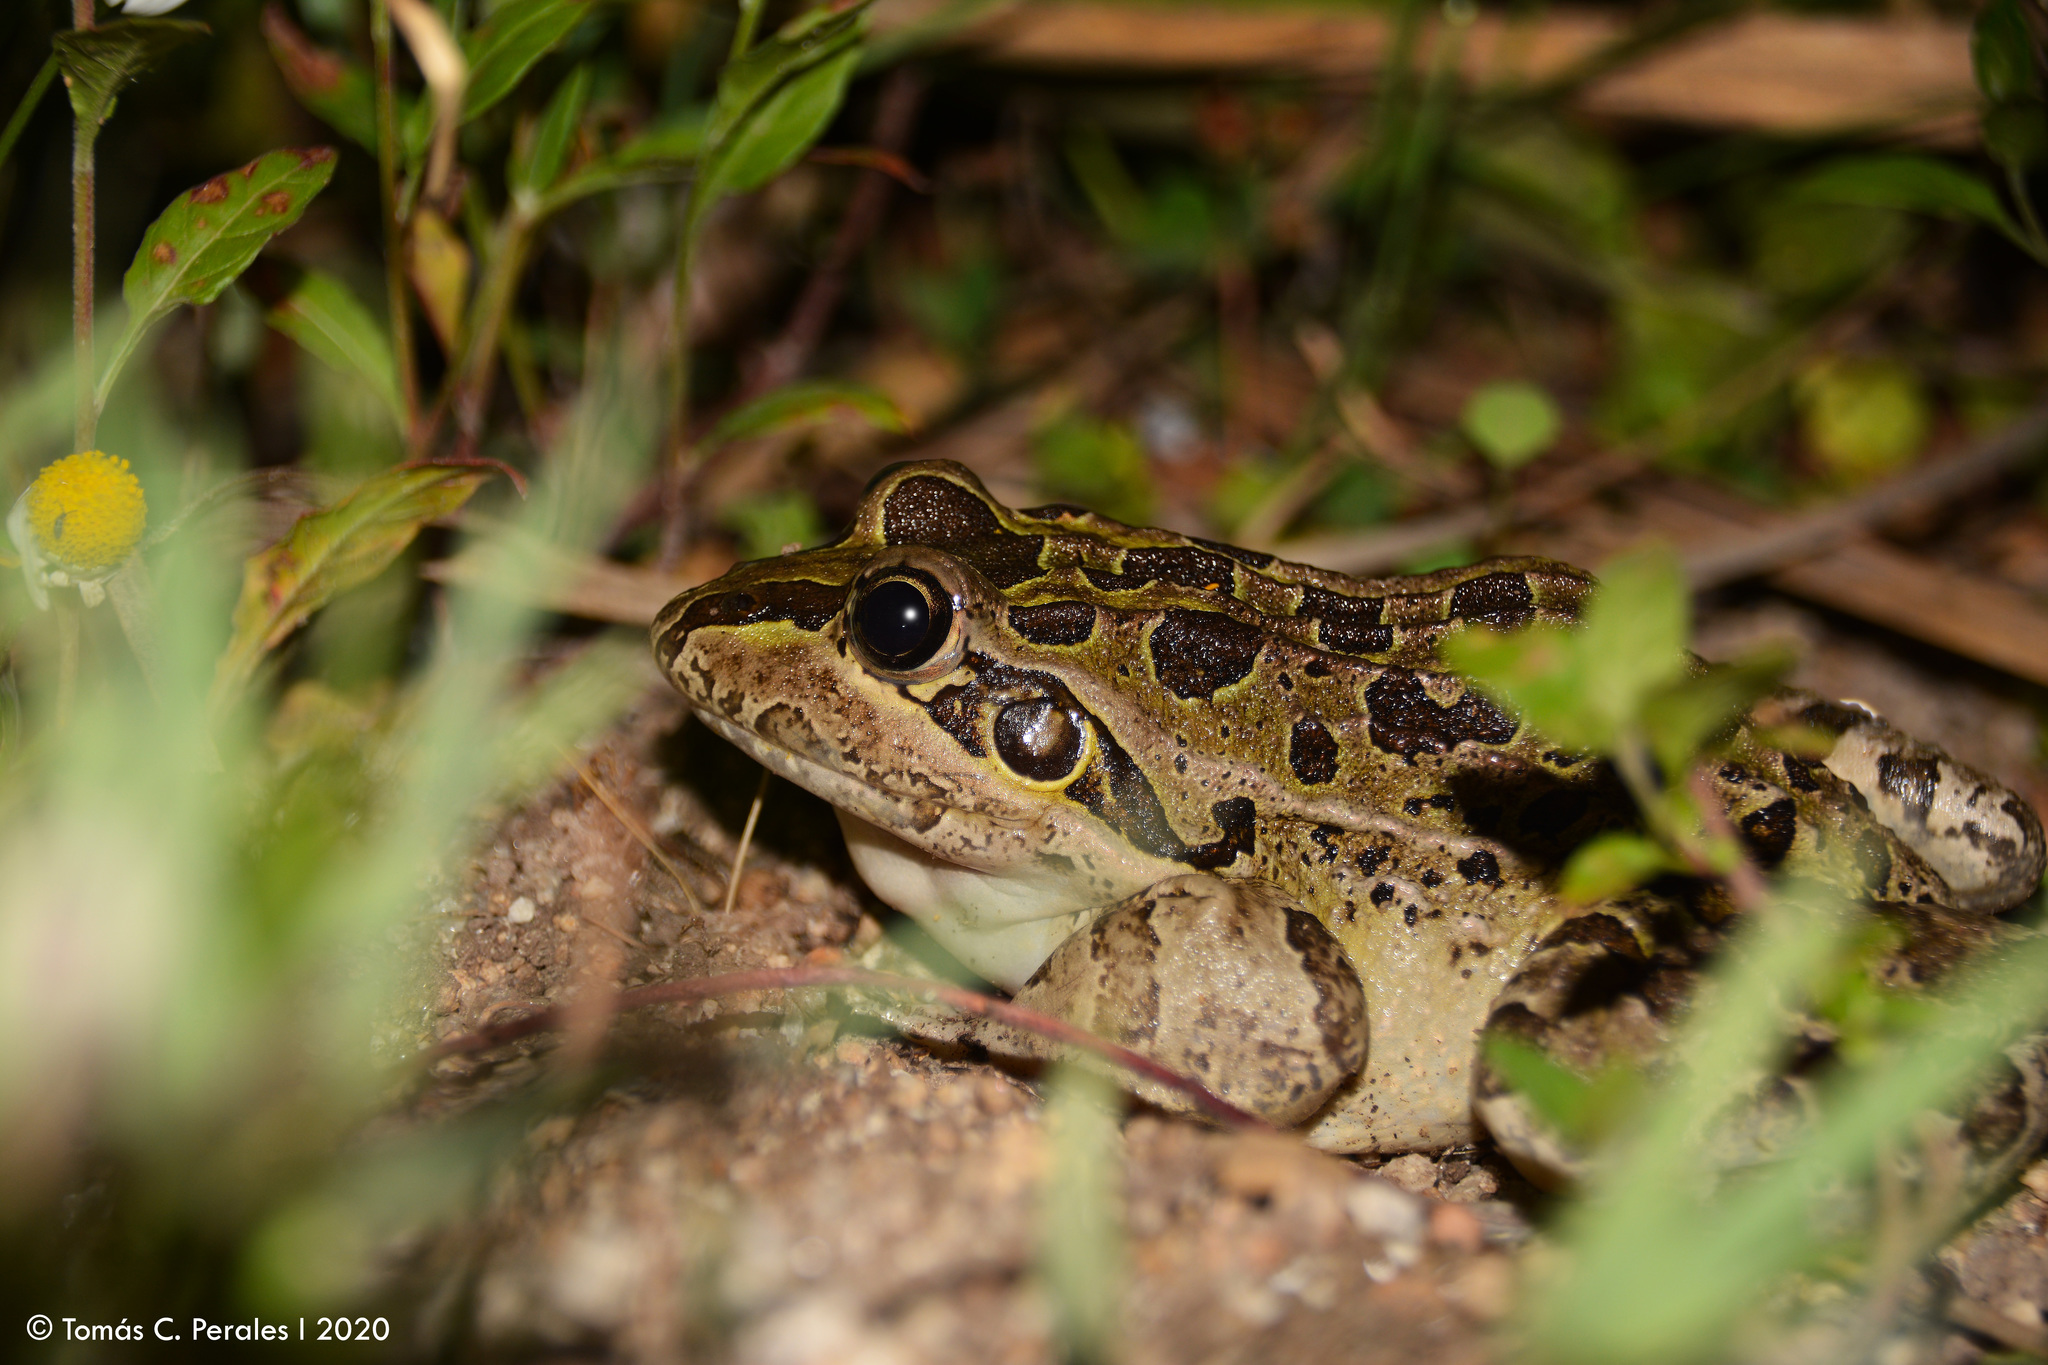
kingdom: Animalia
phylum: Chordata
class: Amphibia
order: Anura
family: Leptodactylidae
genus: Leptodactylus
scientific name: Leptodactylus luctator
